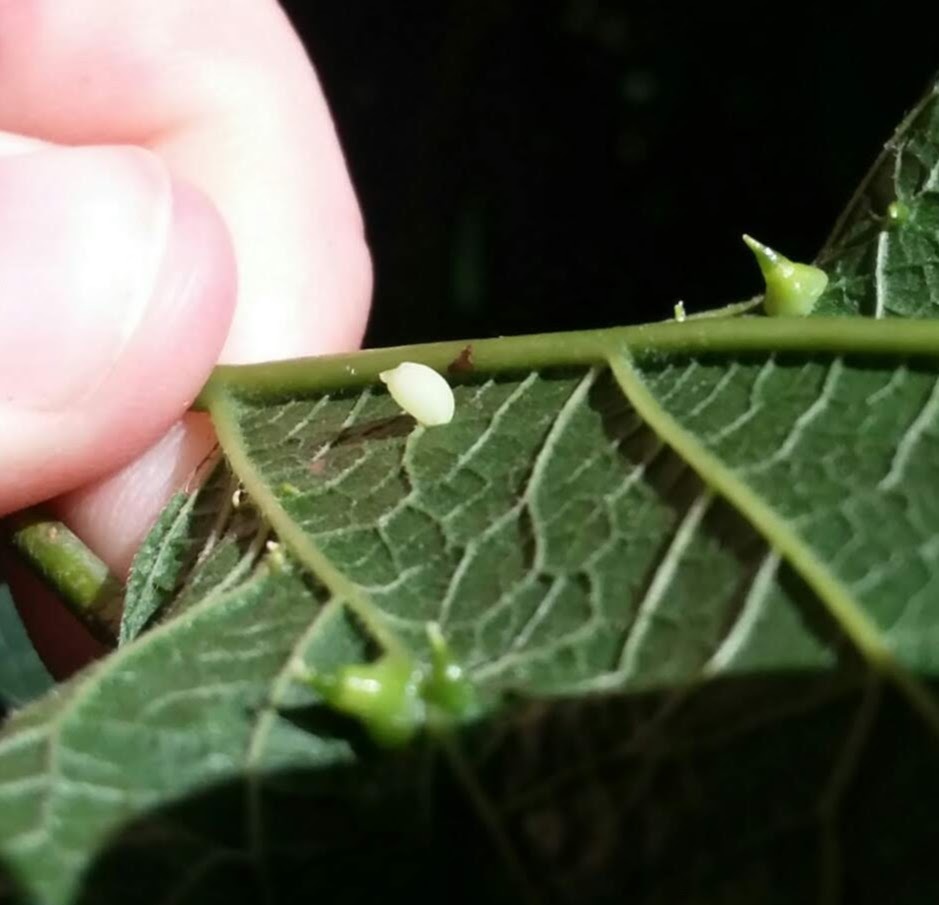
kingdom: Animalia
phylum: Arthropoda
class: Insecta
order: Diptera
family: Cecidomyiidae
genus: Celticecis
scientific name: Celticecis globosa
